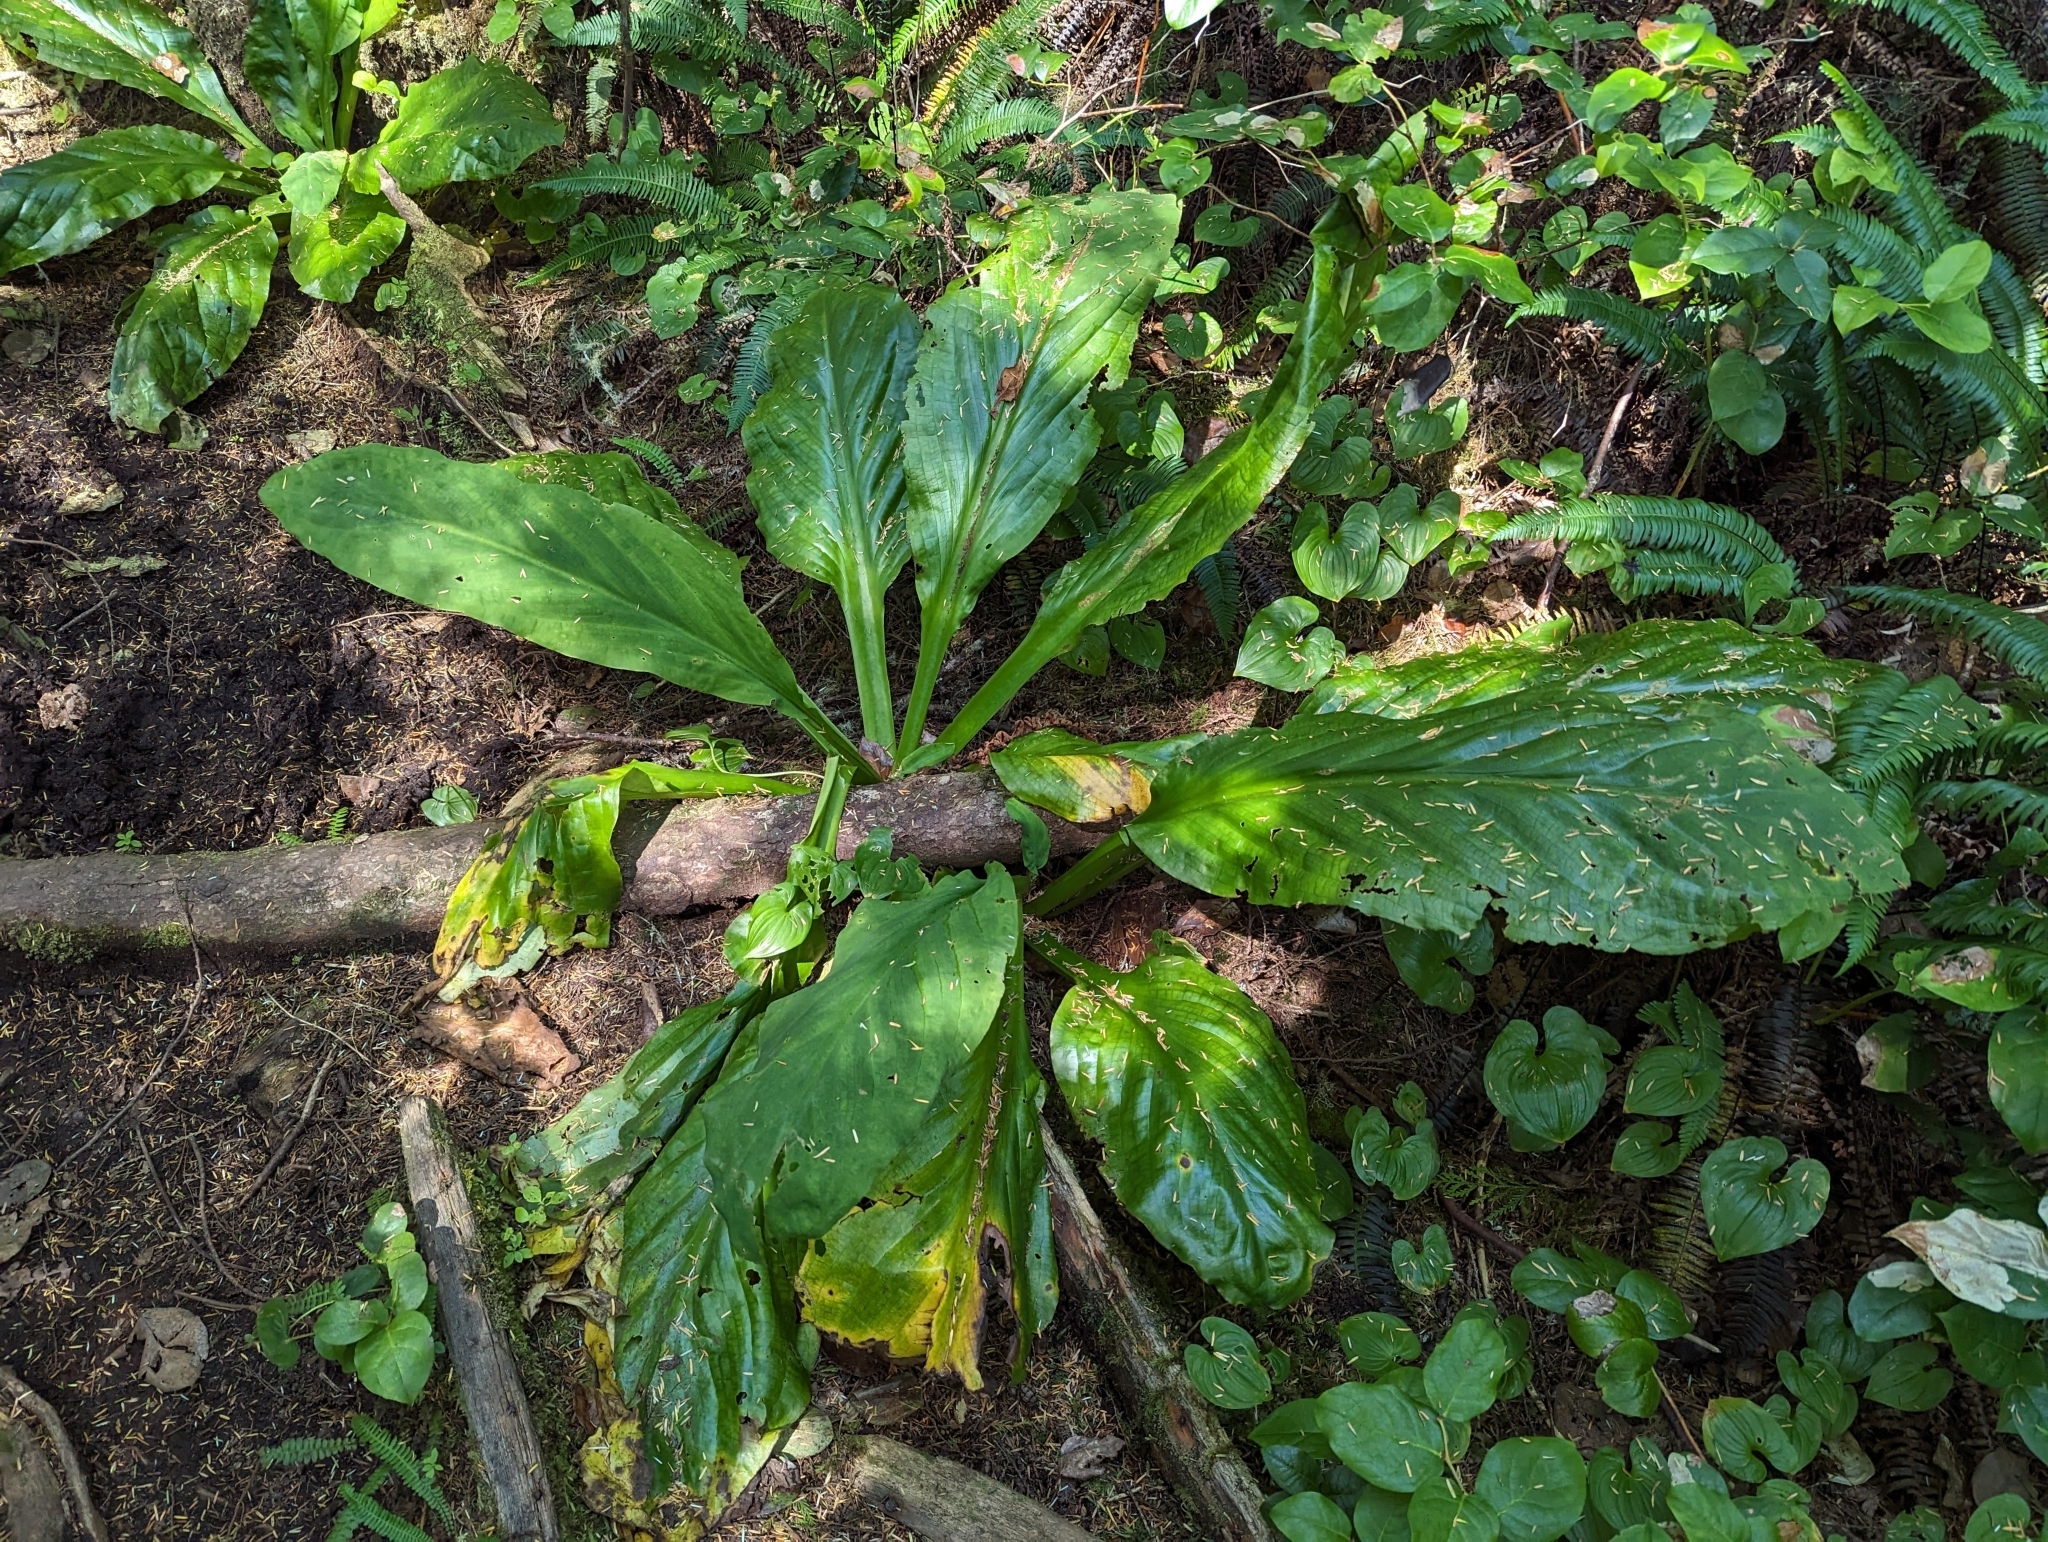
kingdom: Plantae
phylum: Tracheophyta
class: Liliopsida
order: Alismatales
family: Araceae
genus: Lysichiton
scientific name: Lysichiton americanus
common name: American skunk cabbage
